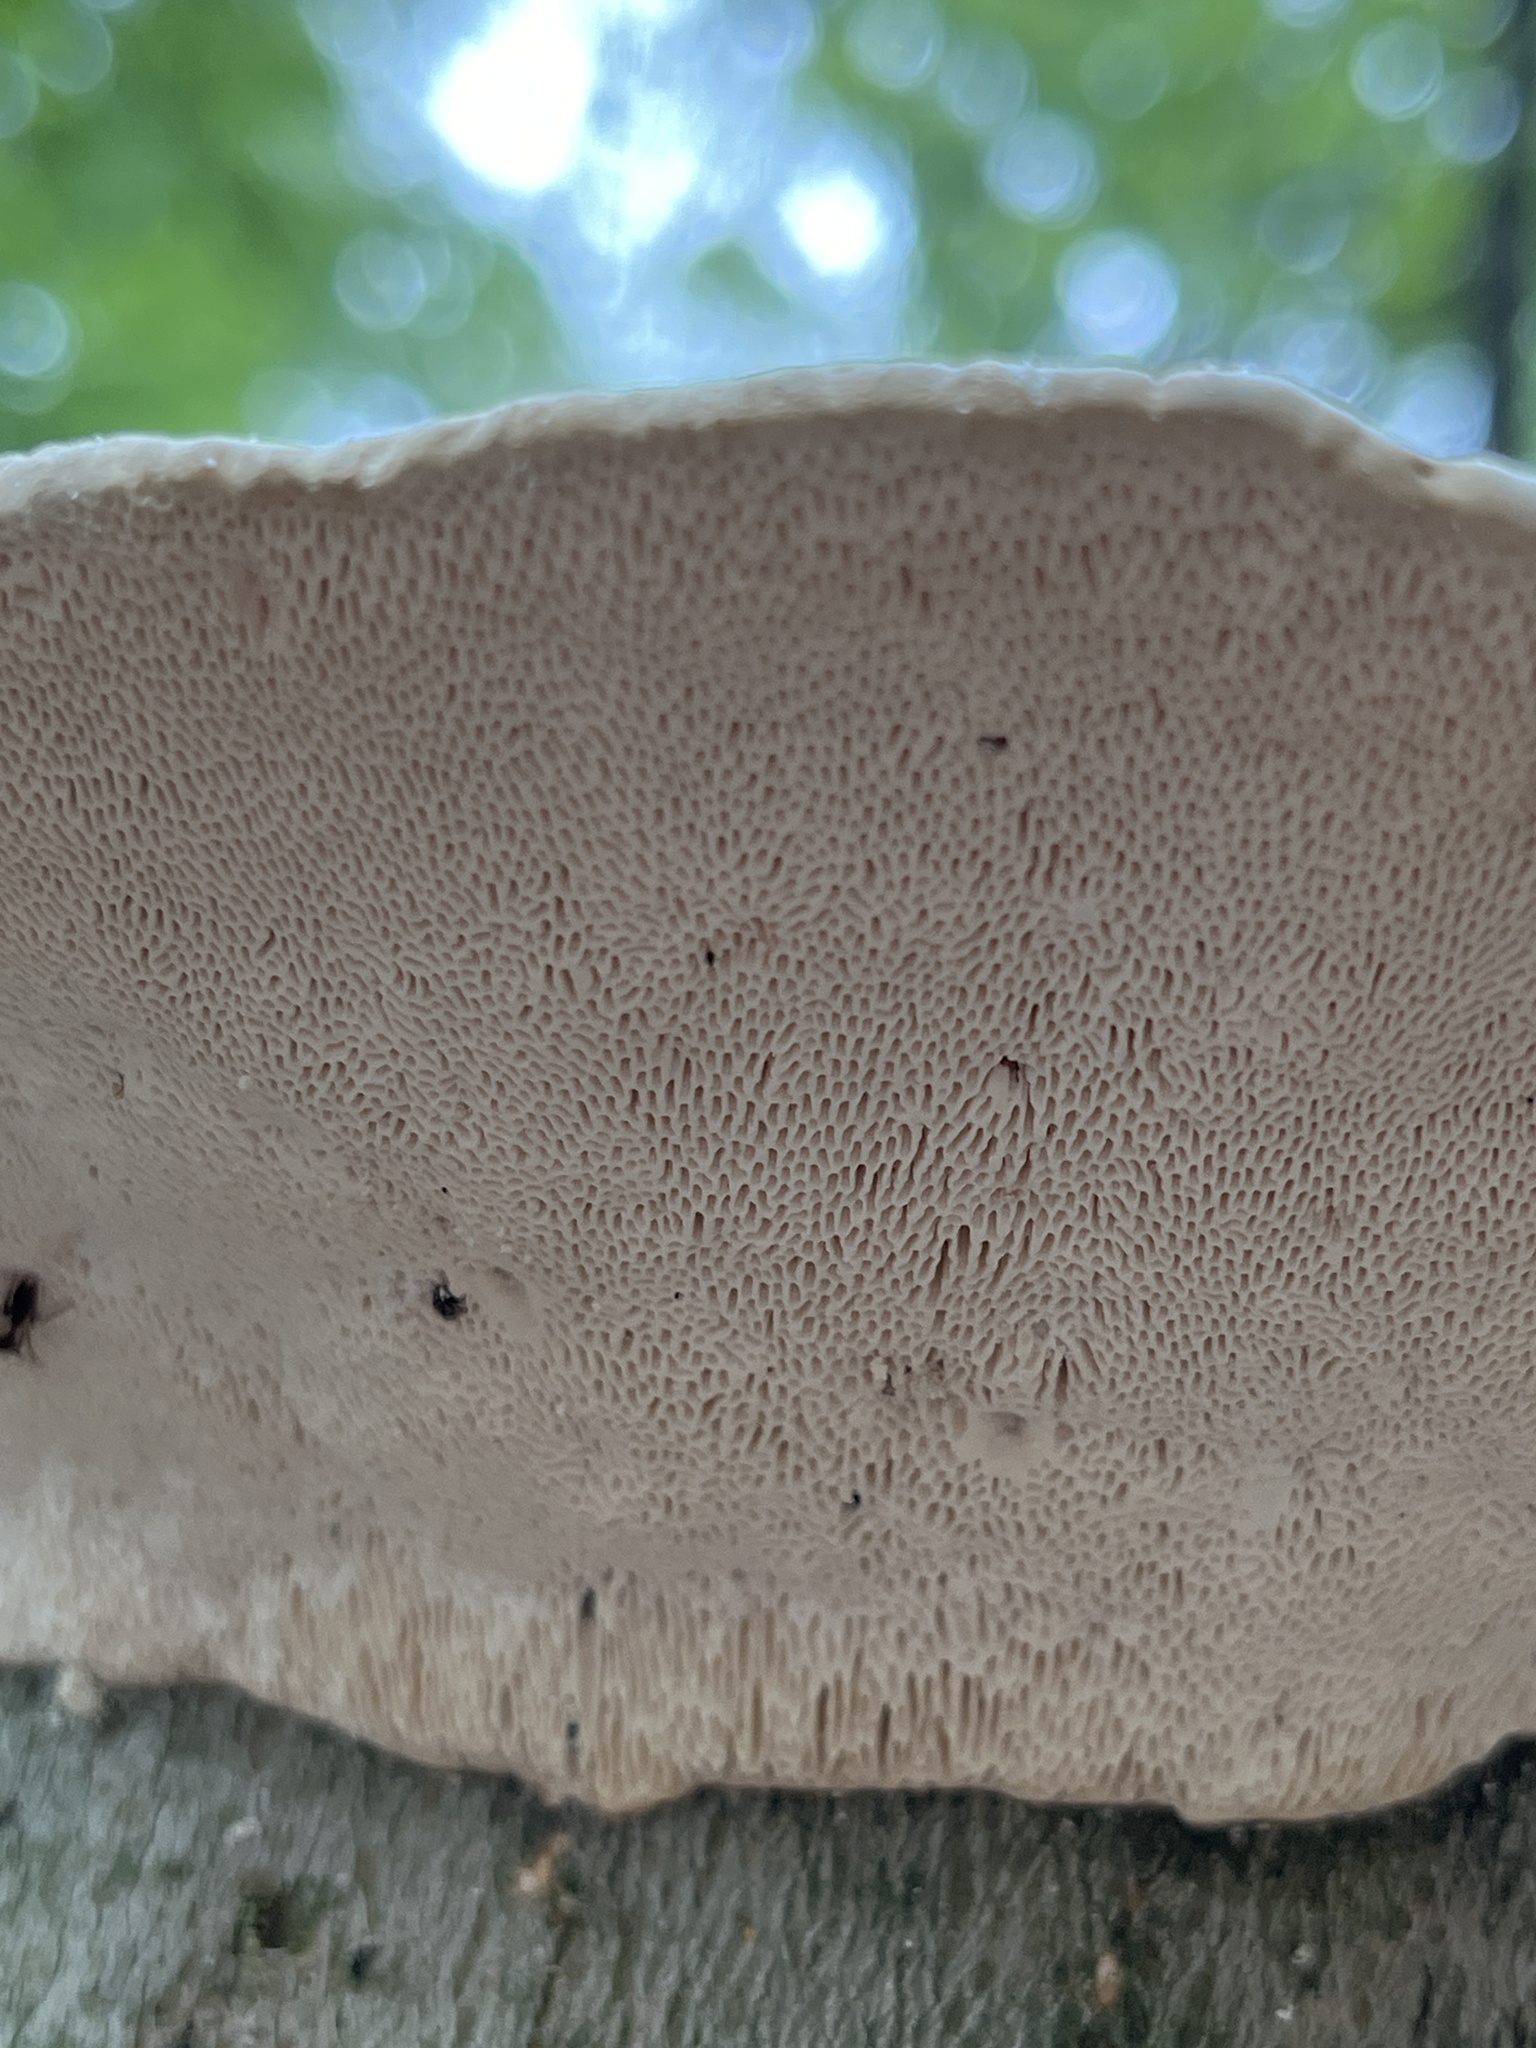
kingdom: Fungi
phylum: Basidiomycota
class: Agaricomycetes
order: Polyporales
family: Polyporaceae
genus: Trametes
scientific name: Trametes gibbosa
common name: Lumpy bracket
